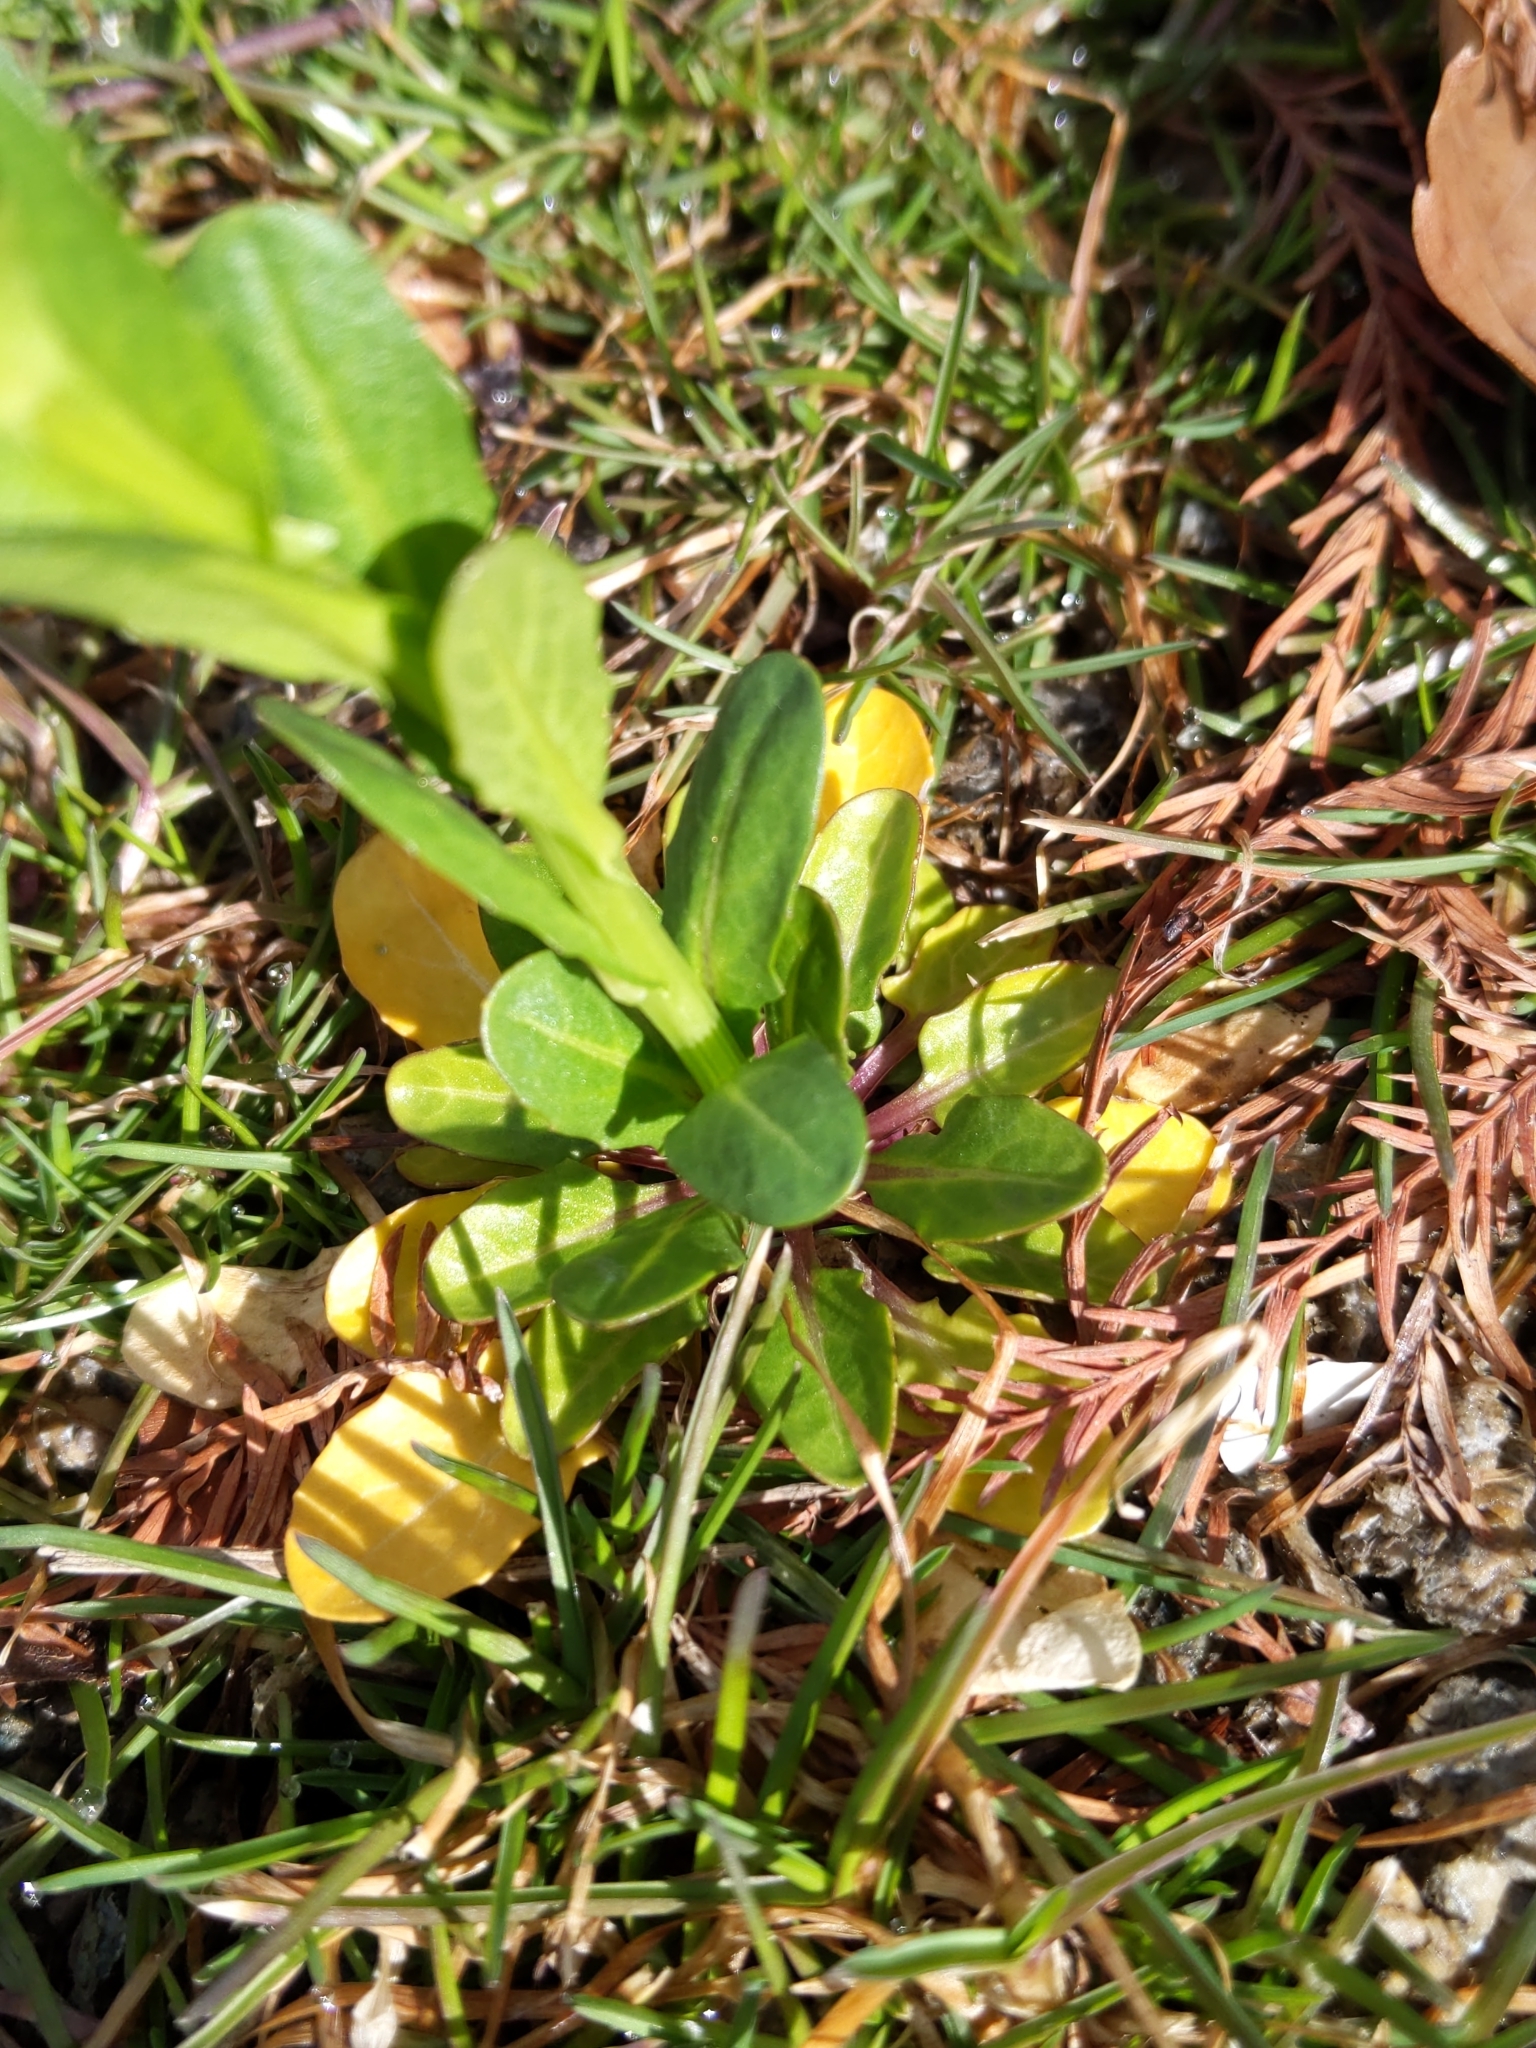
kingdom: Plantae
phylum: Tracheophyta
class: Magnoliopsida
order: Brassicales
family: Brassicaceae
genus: Thlaspi
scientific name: Thlaspi arvense
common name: Field pennycress
